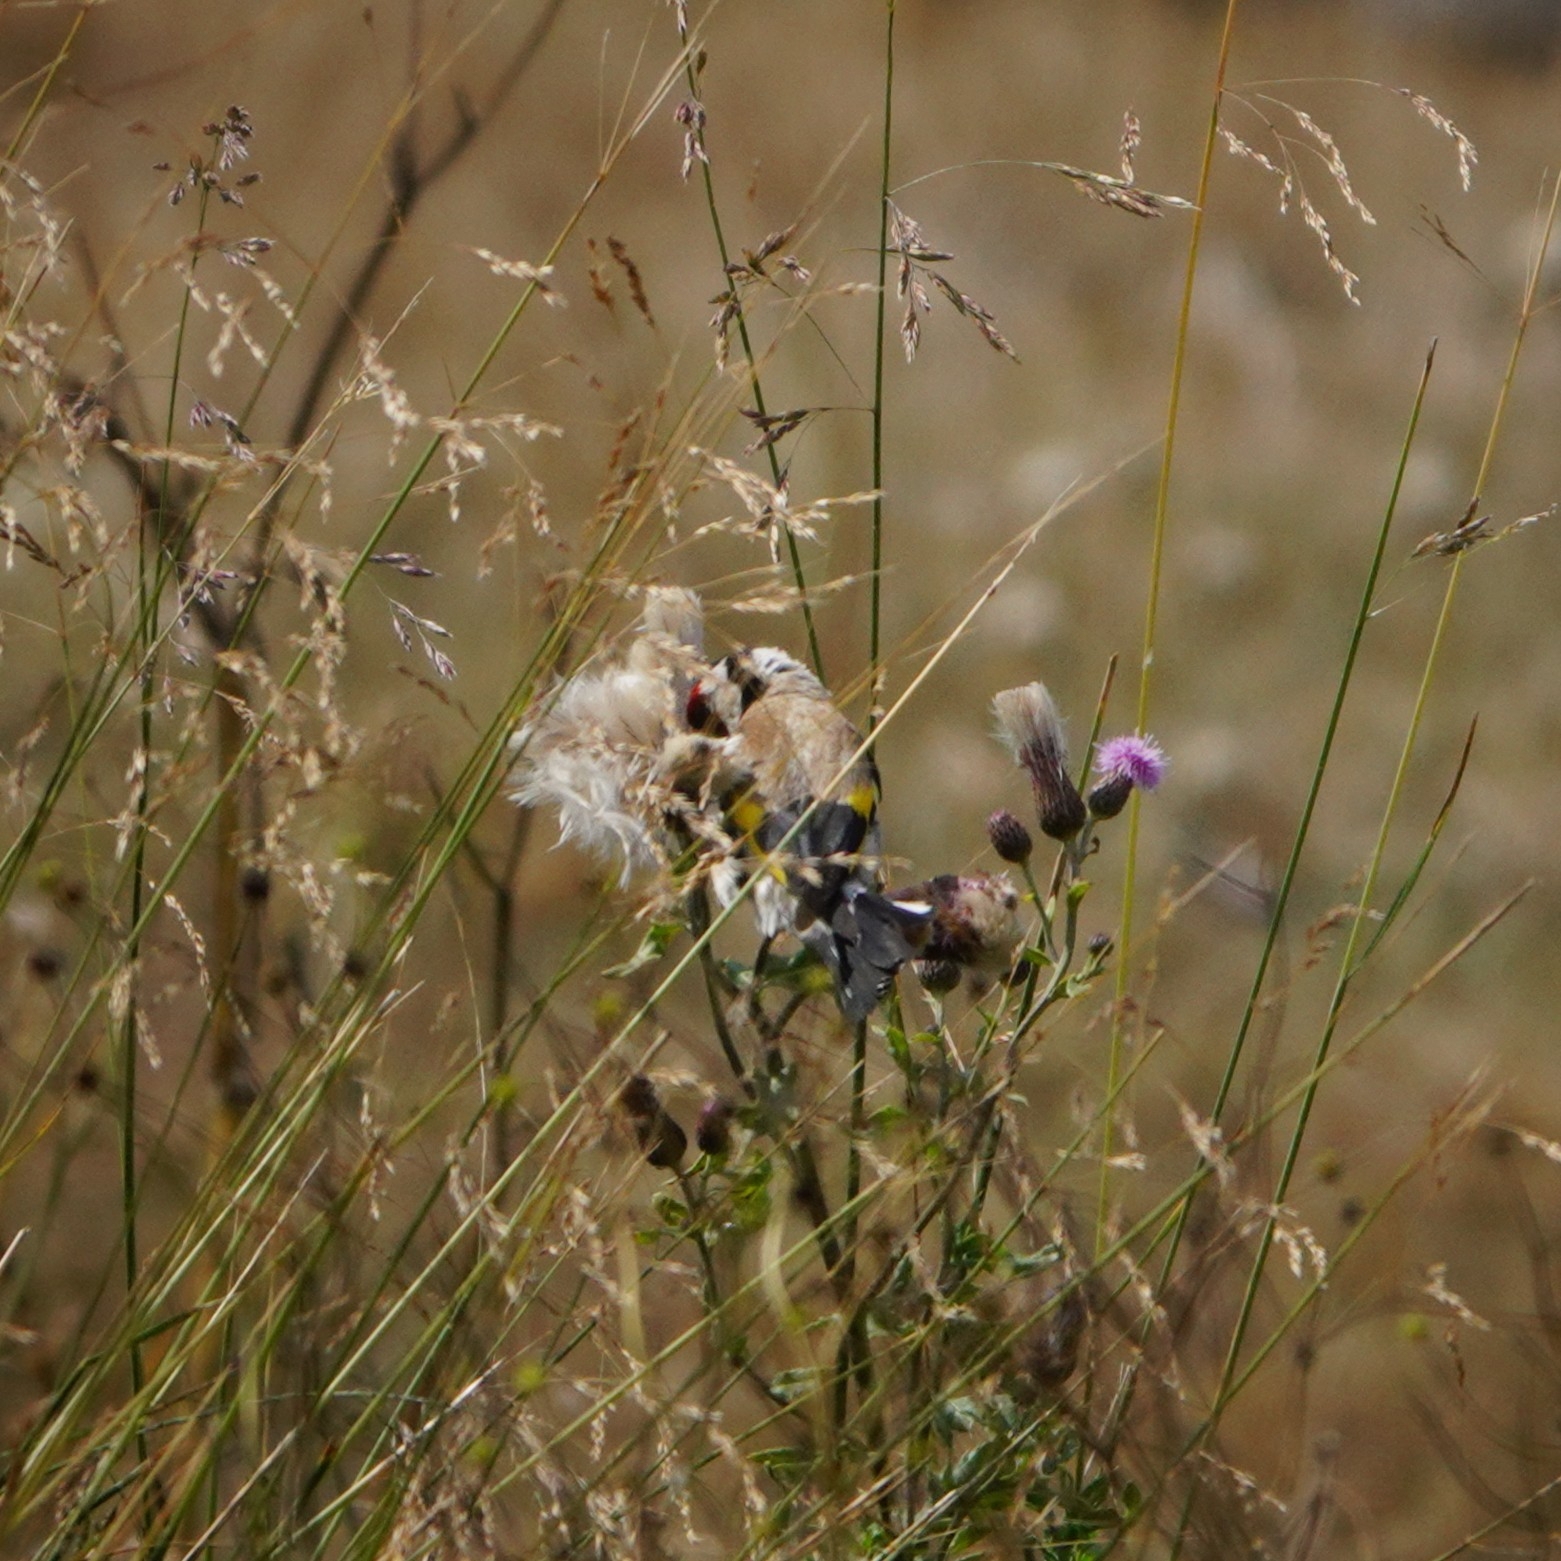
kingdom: Animalia
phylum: Chordata
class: Aves
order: Passeriformes
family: Fringillidae
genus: Carduelis
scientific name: Carduelis carduelis
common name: European goldfinch
